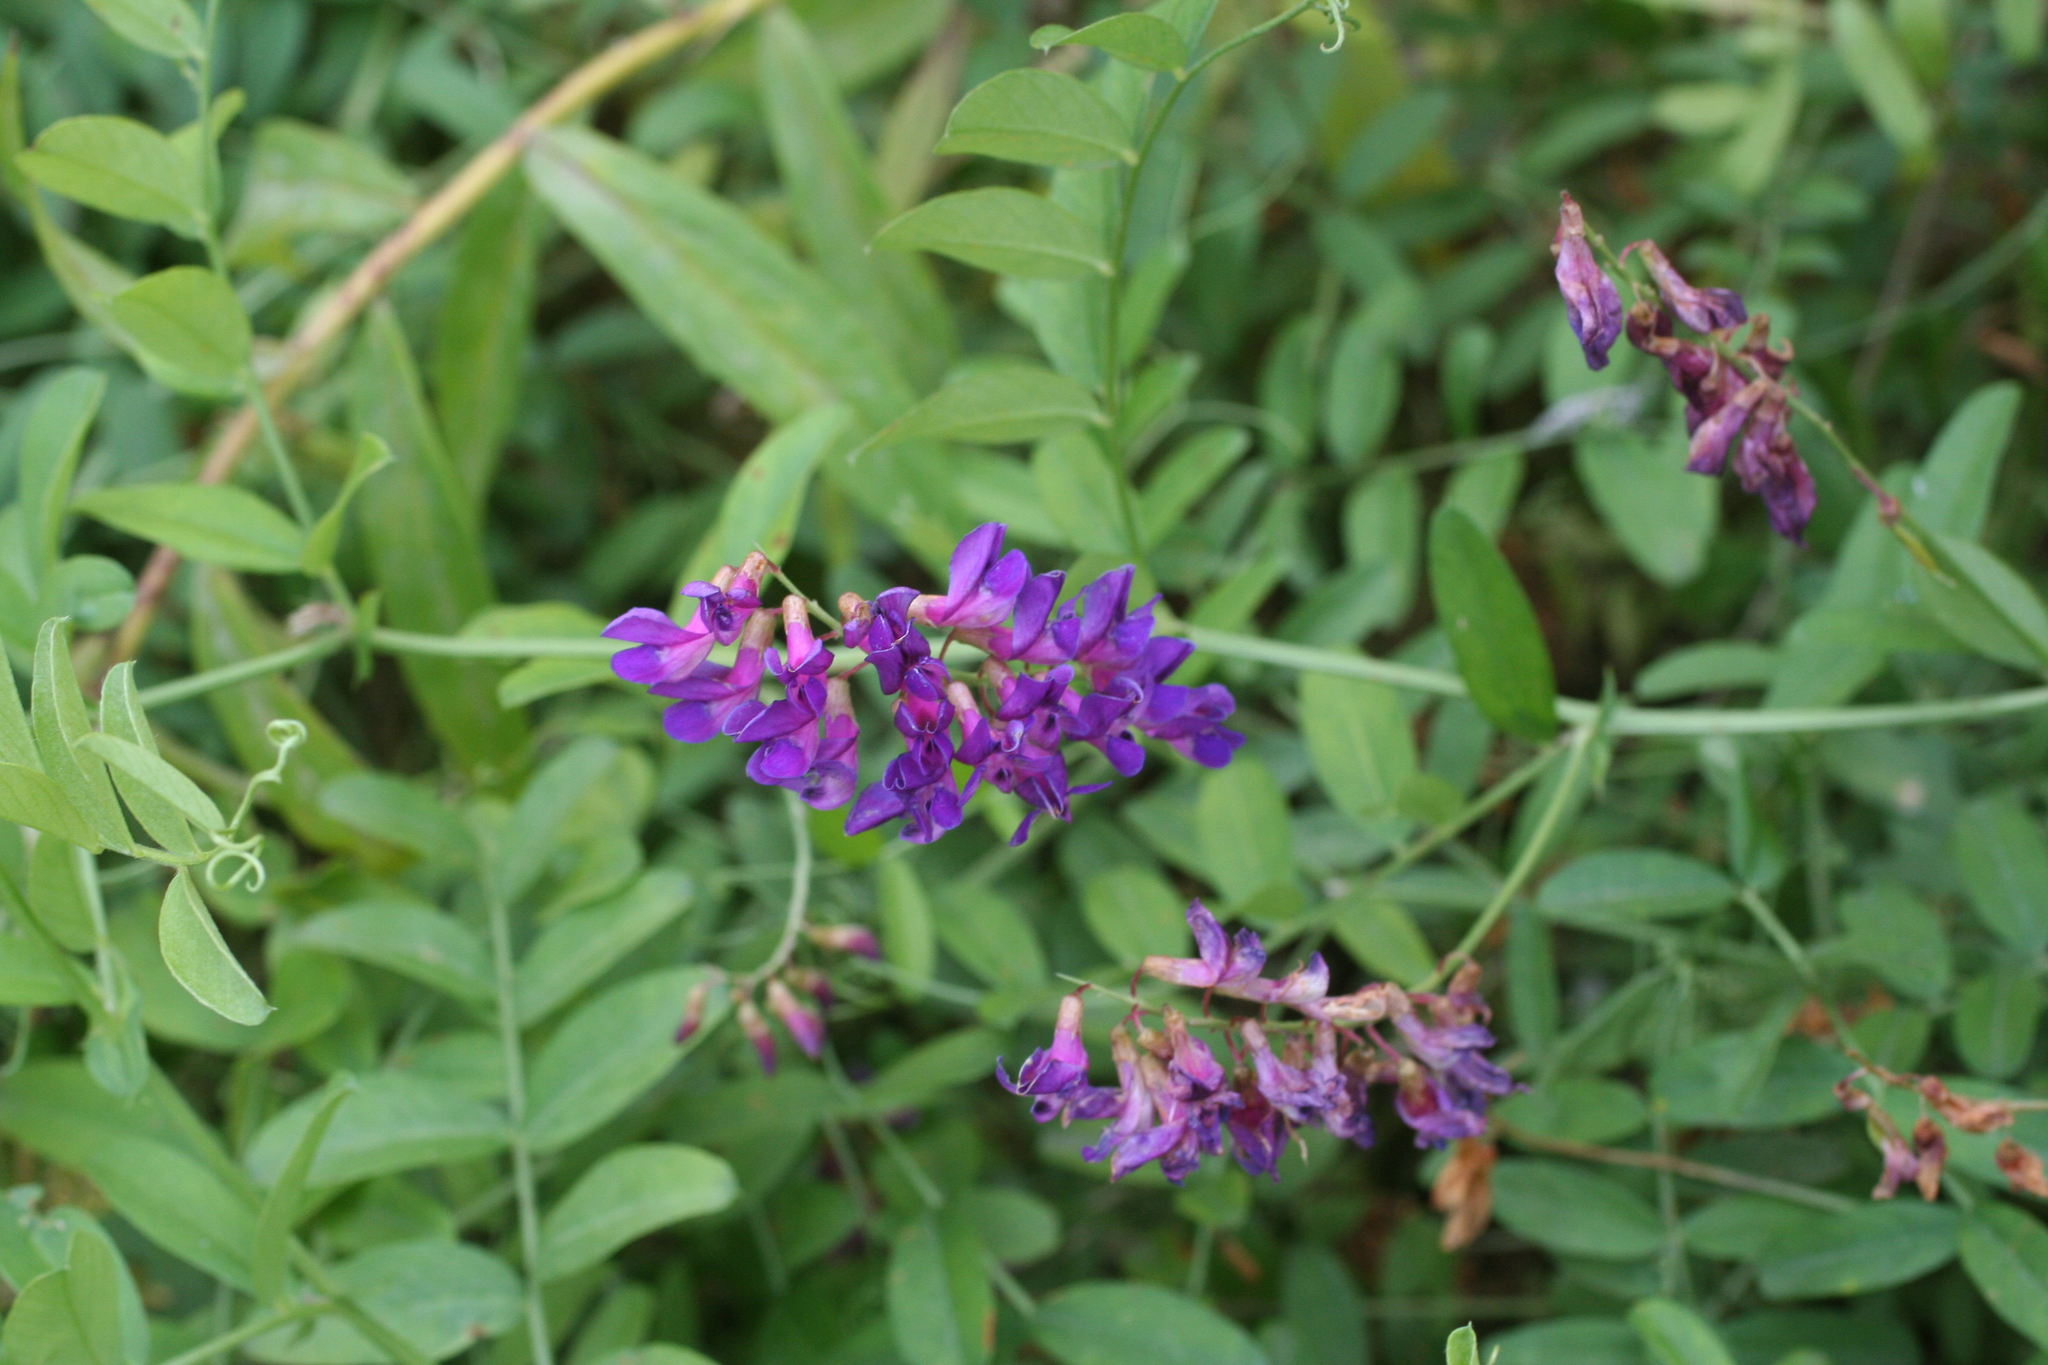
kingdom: Plantae
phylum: Tracheophyta
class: Magnoliopsida
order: Fabales
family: Fabaceae
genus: Vicia
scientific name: Vicia amoena
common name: Cheder ebs
